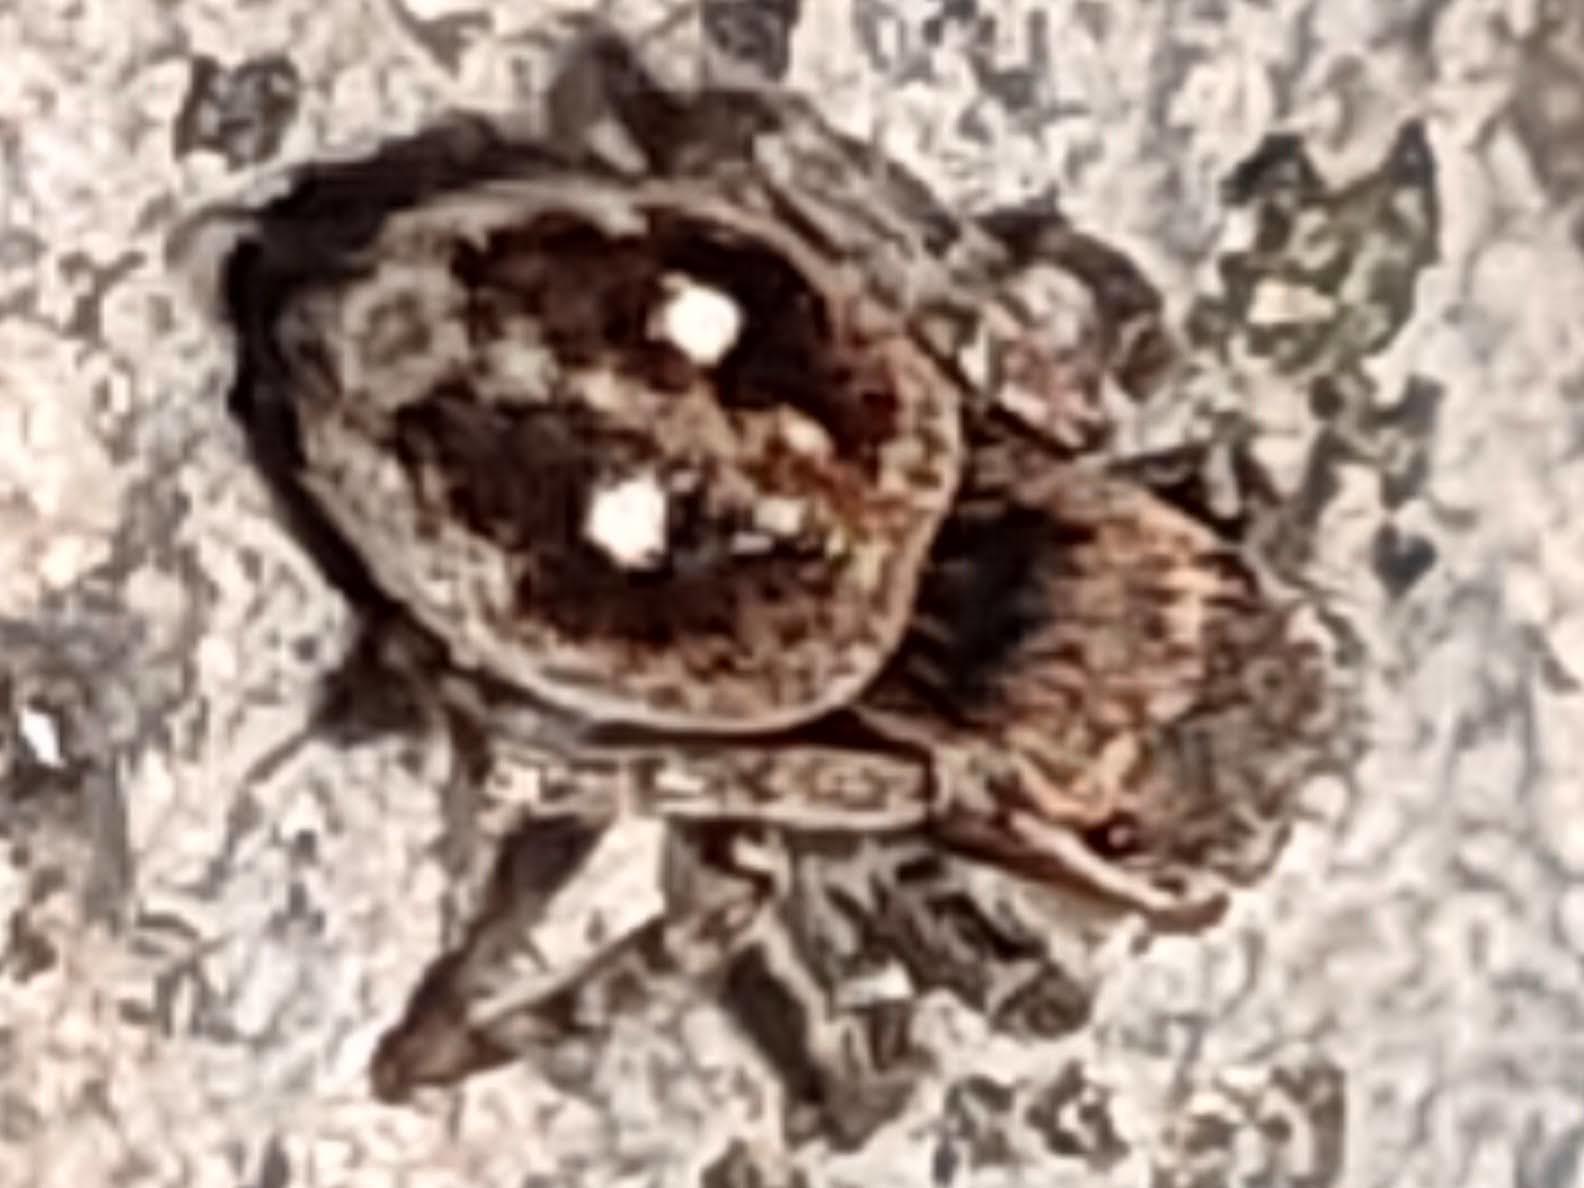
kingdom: Animalia
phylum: Arthropoda
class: Arachnida
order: Araneae
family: Salticidae
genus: Attulus
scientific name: Attulus penicillatus
